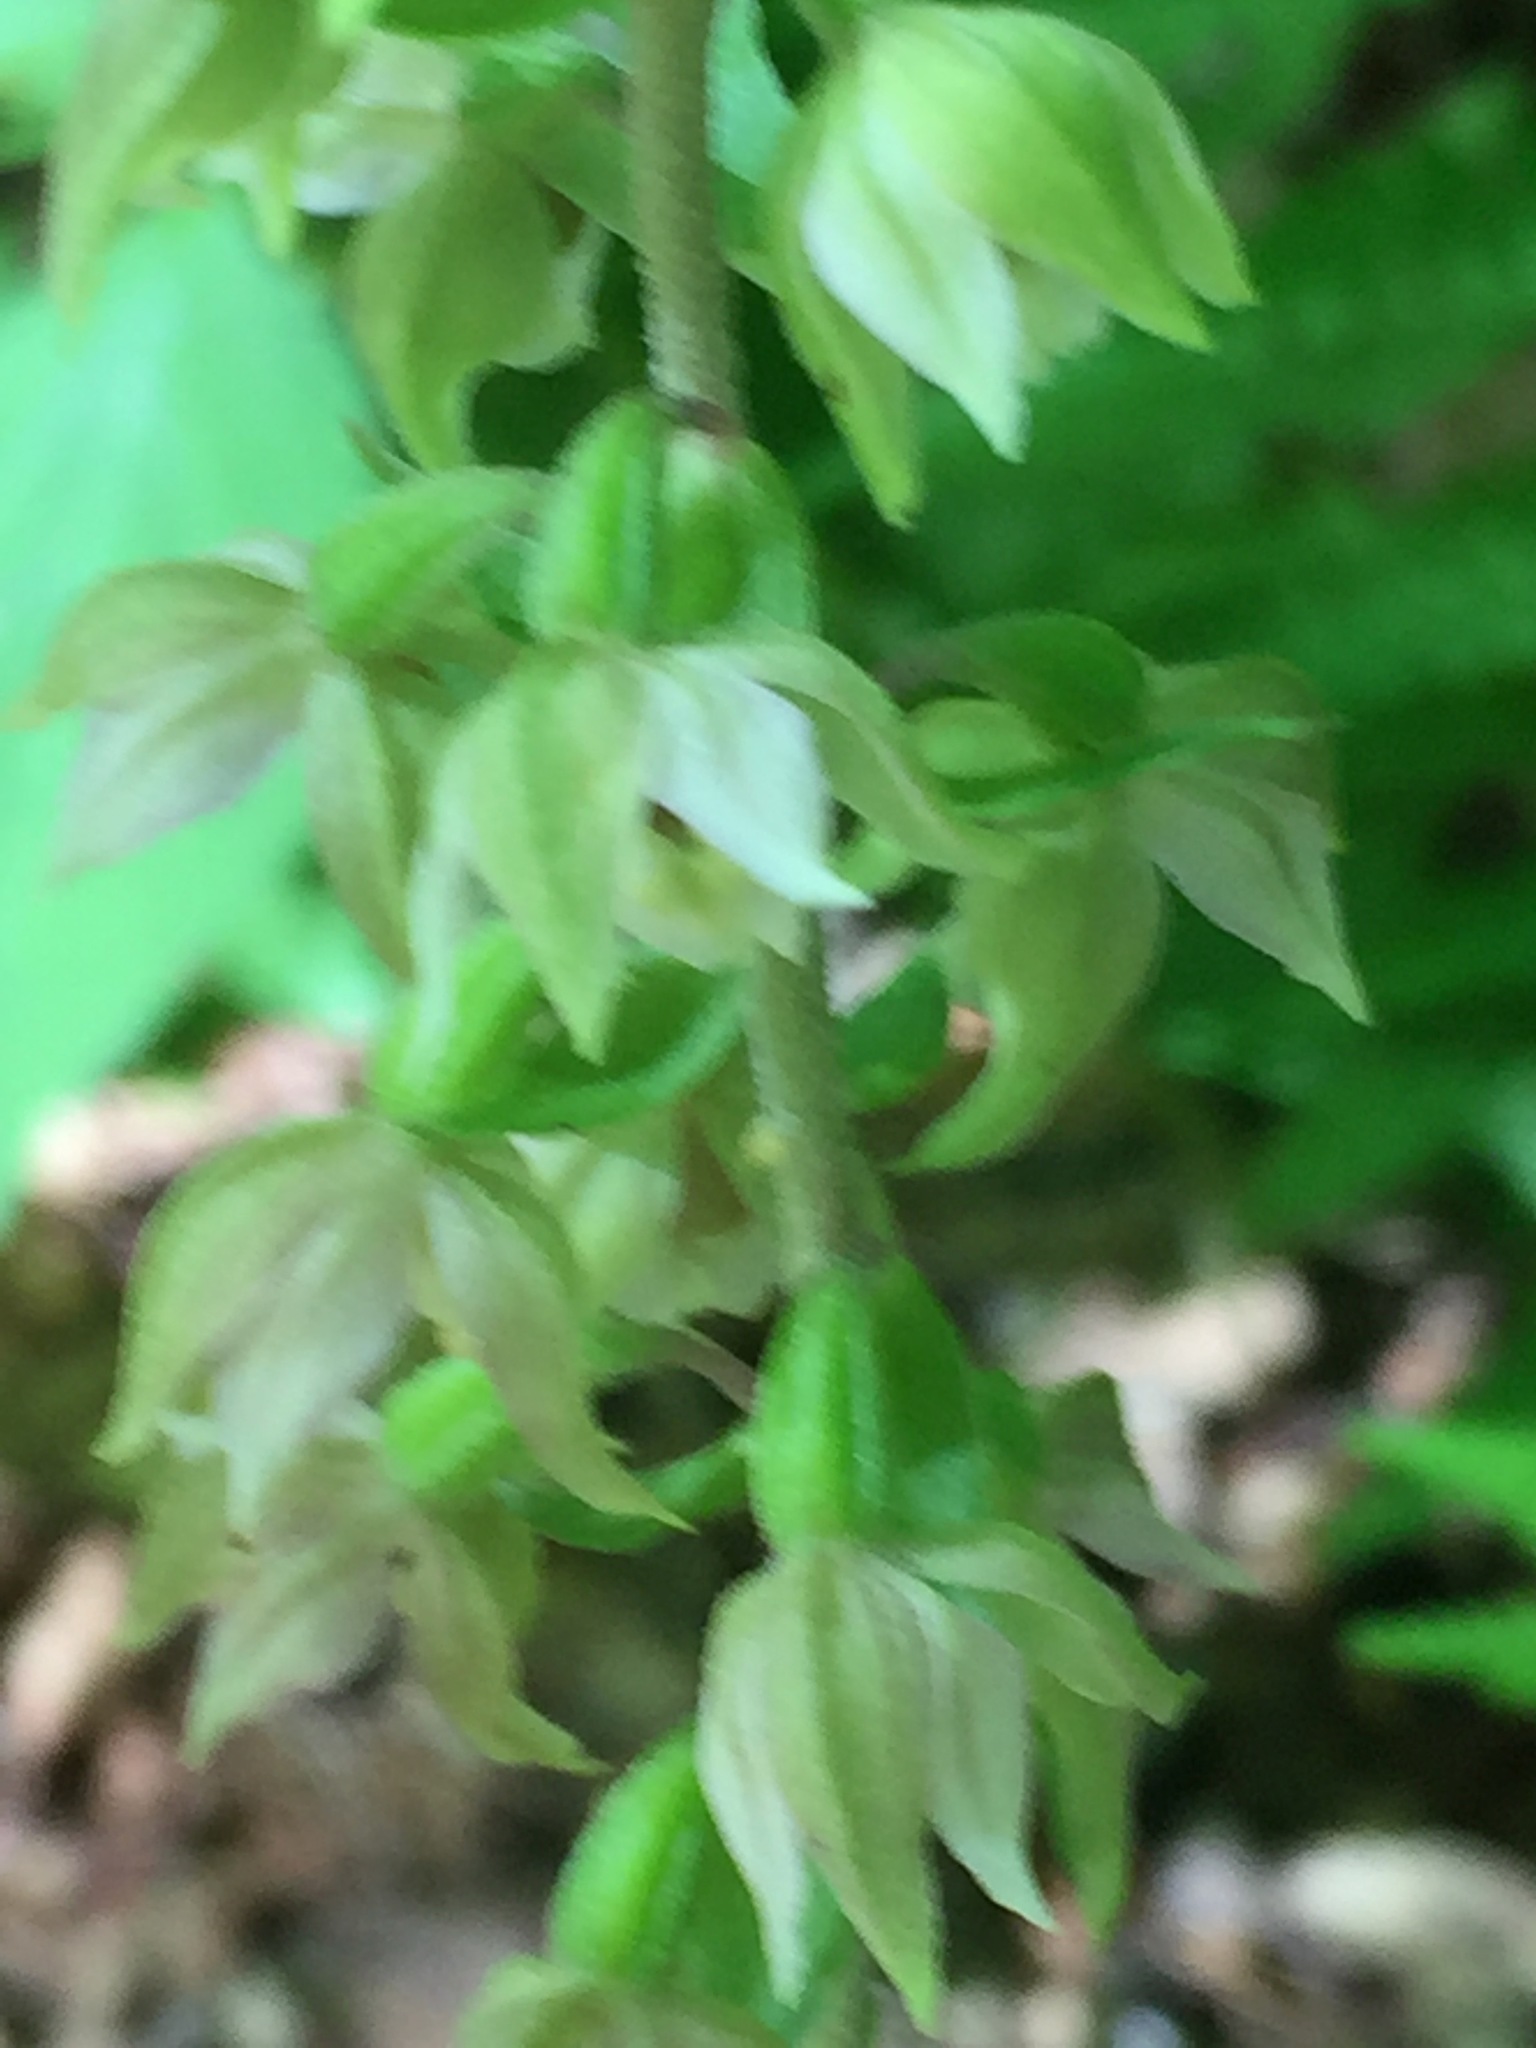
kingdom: Plantae
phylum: Tracheophyta
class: Liliopsida
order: Asparagales
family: Orchidaceae
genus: Epipactis
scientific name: Epipactis helleborine
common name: Broad-leaved helleborine
